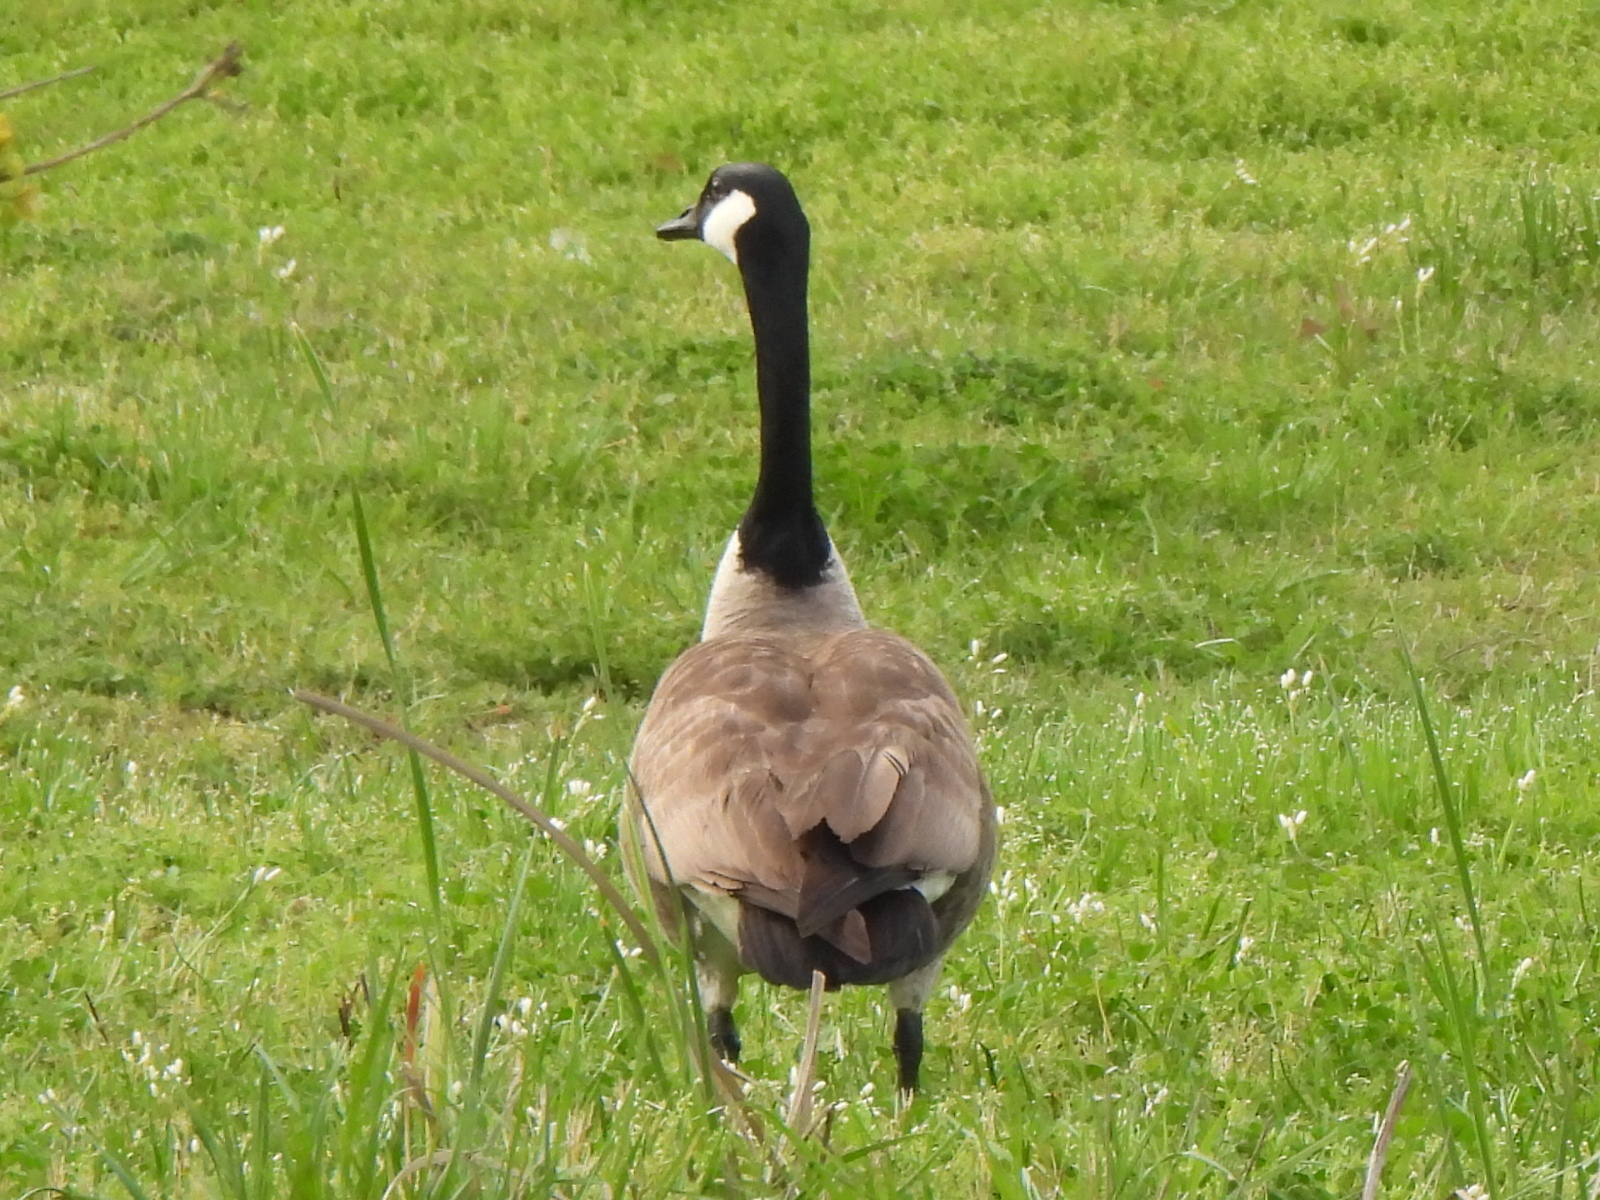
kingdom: Animalia
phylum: Chordata
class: Aves
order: Anseriformes
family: Anatidae
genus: Branta
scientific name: Branta canadensis
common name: Canada goose
